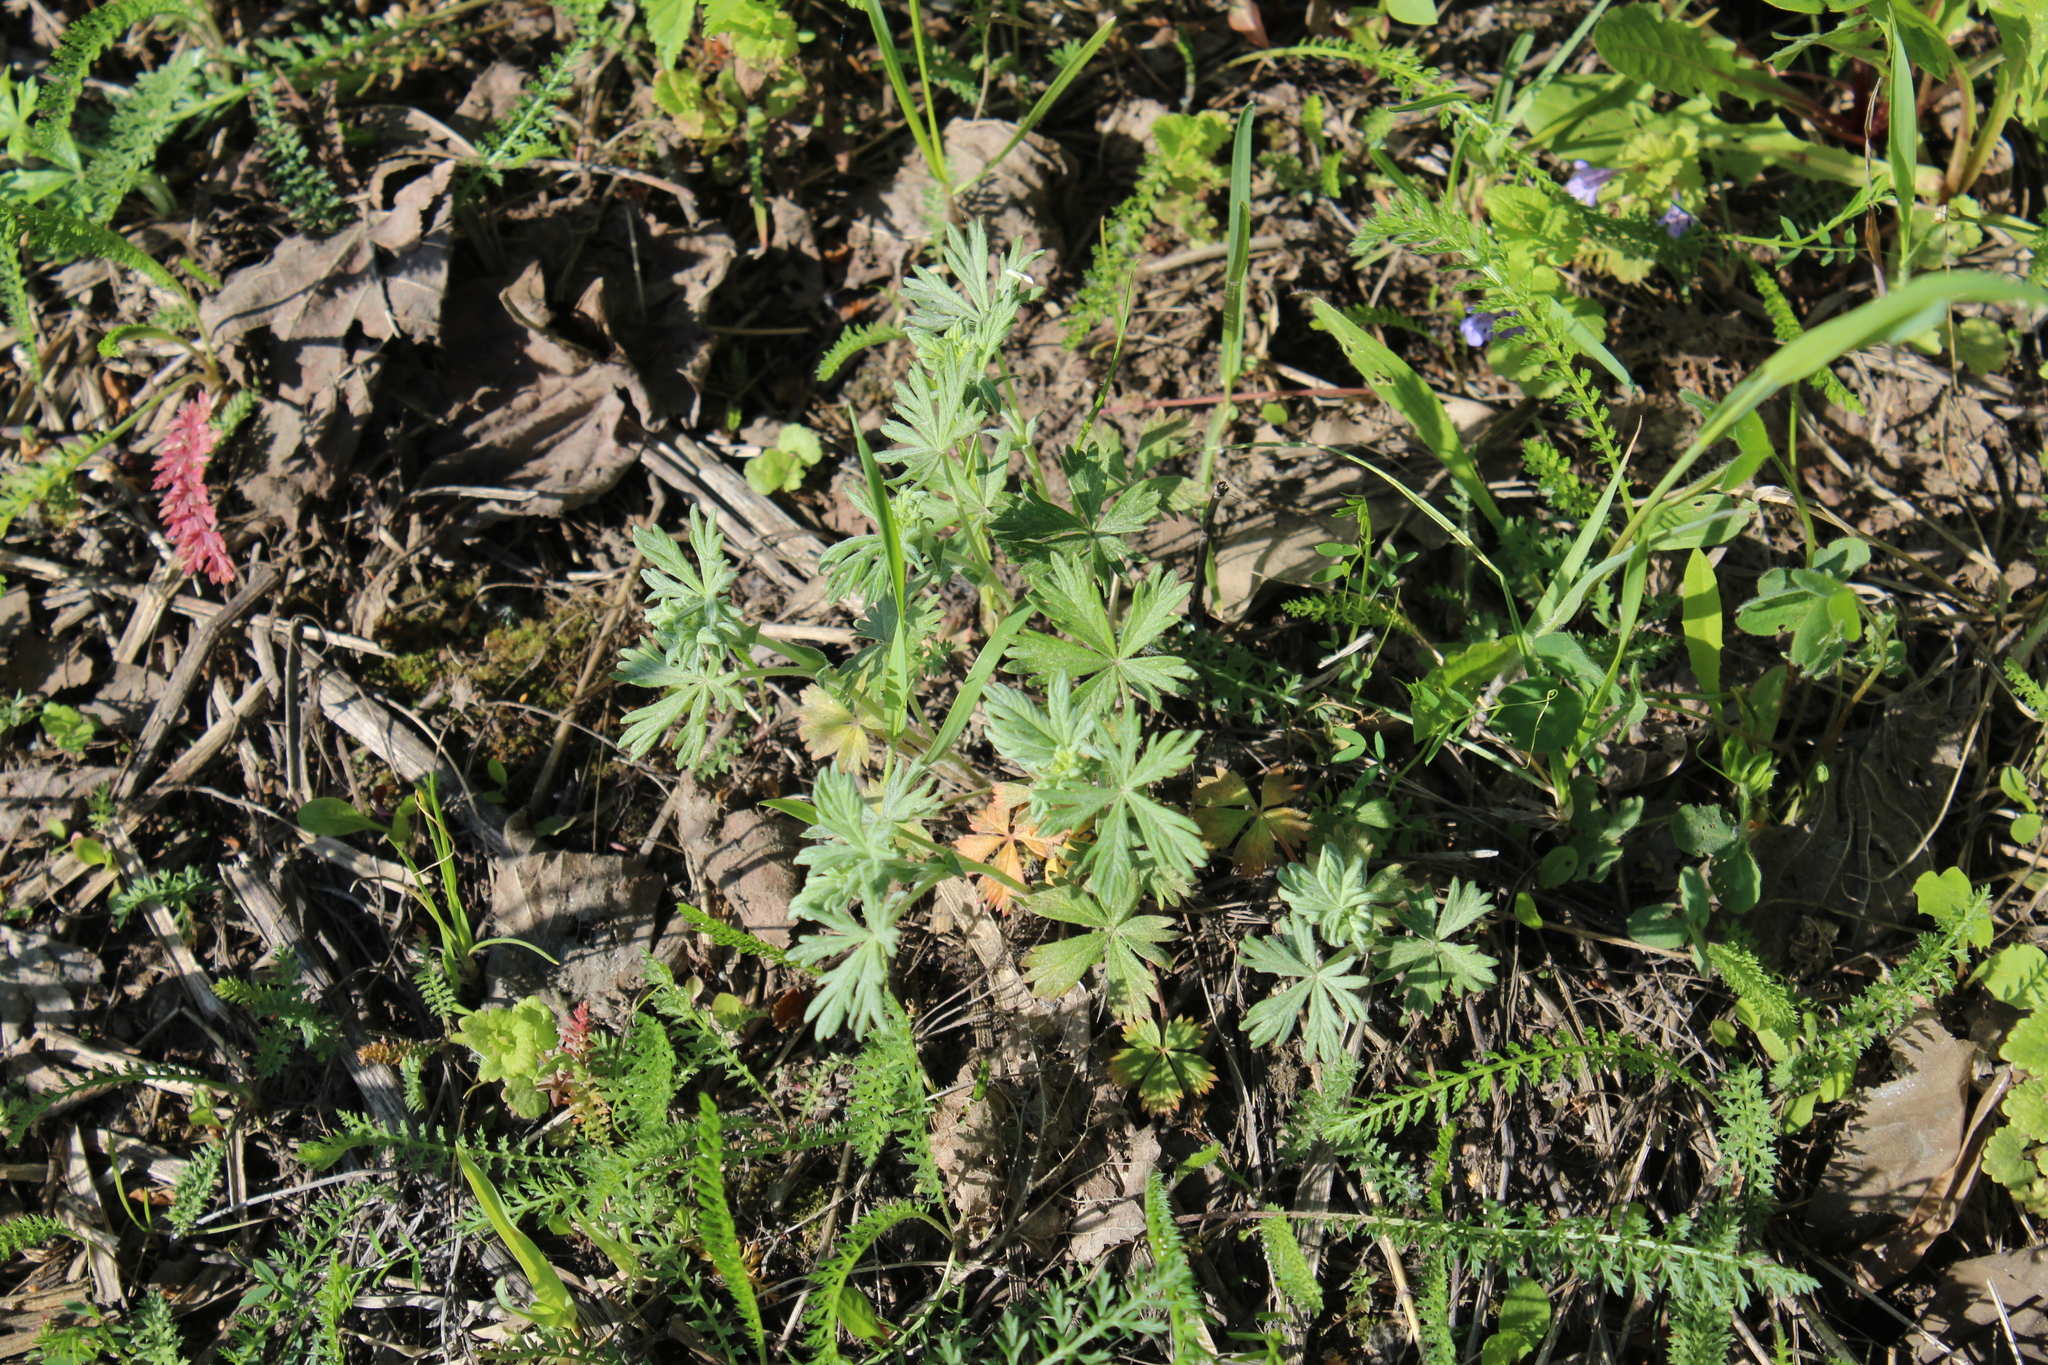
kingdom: Plantae
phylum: Tracheophyta
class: Magnoliopsida
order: Rosales
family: Rosaceae
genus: Potentilla
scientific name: Potentilla argentea
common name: Hoary cinquefoil
